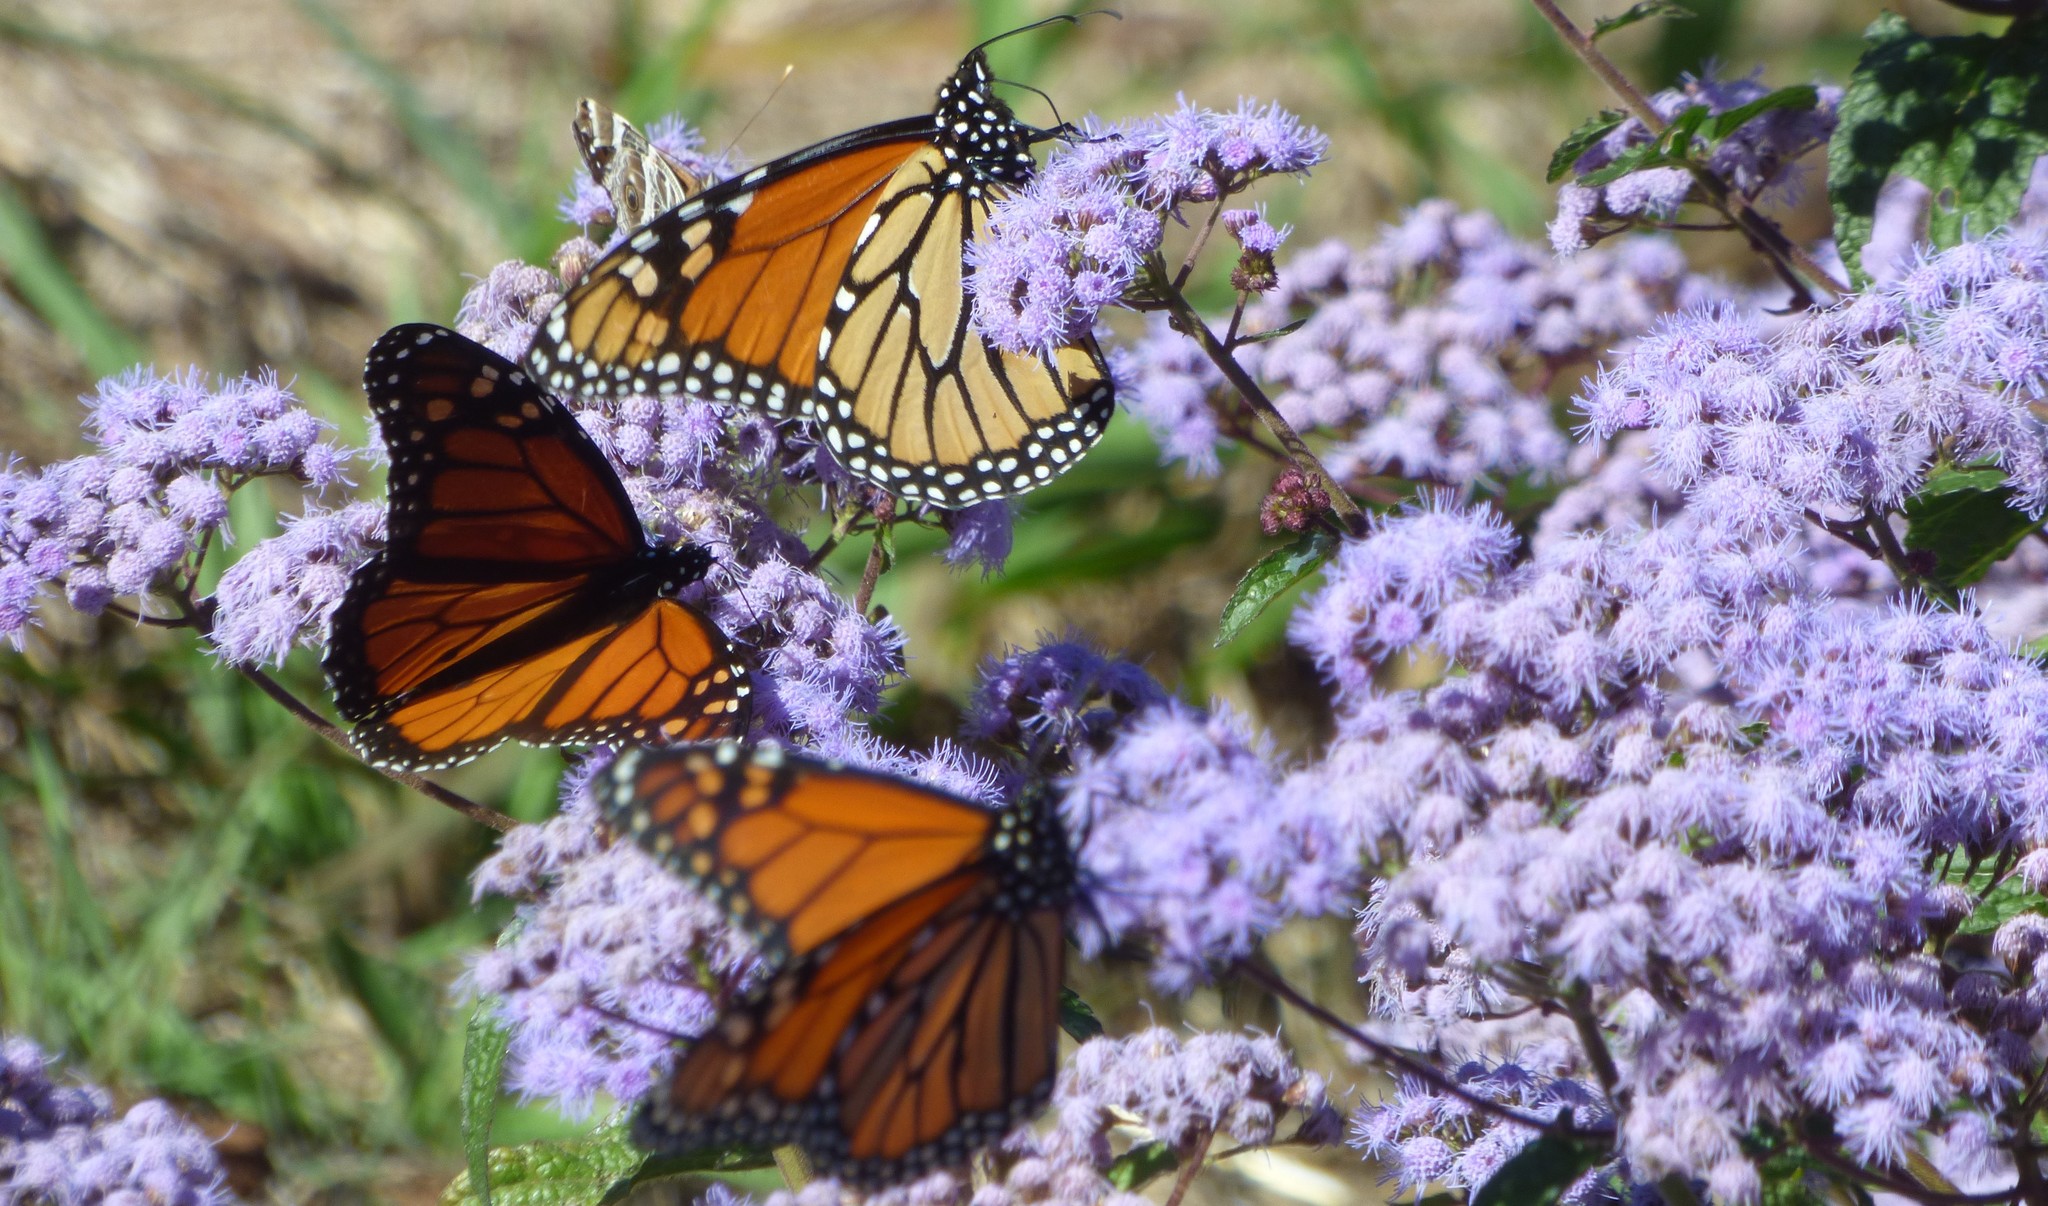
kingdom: Animalia
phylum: Arthropoda
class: Insecta
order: Lepidoptera
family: Nymphalidae
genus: Danaus
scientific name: Danaus plexippus
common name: Monarch
